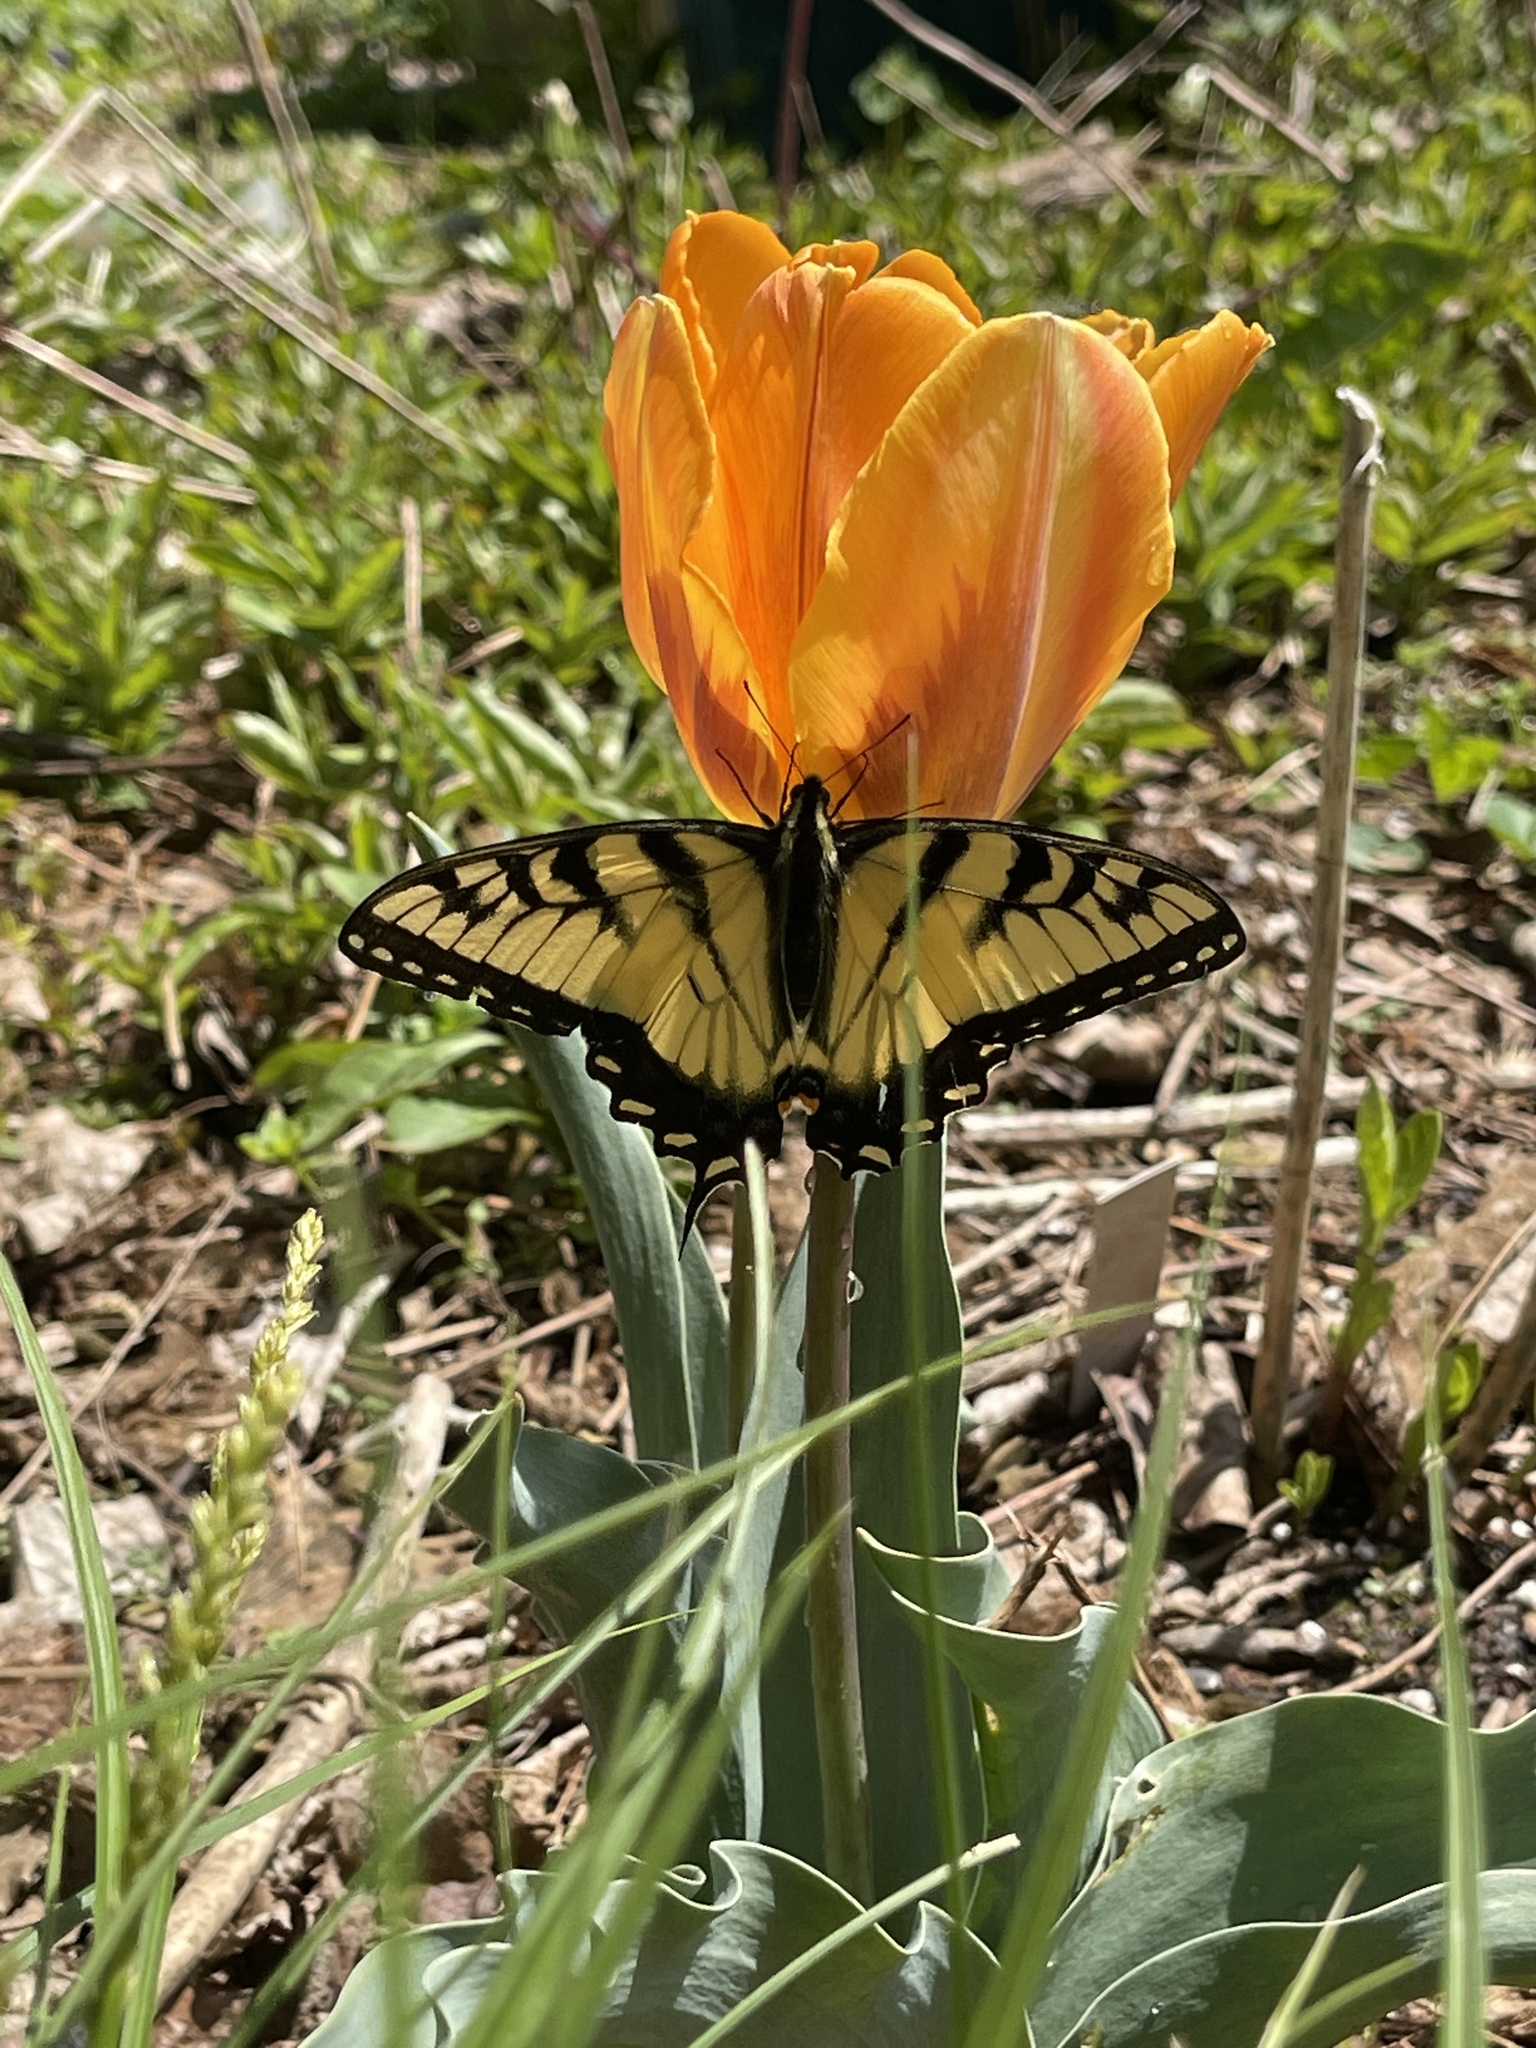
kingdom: Animalia
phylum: Arthropoda
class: Insecta
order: Lepidoptera
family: Papilionidae
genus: Papilio
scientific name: Papilio glaucus
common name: Tiger swallowtail
